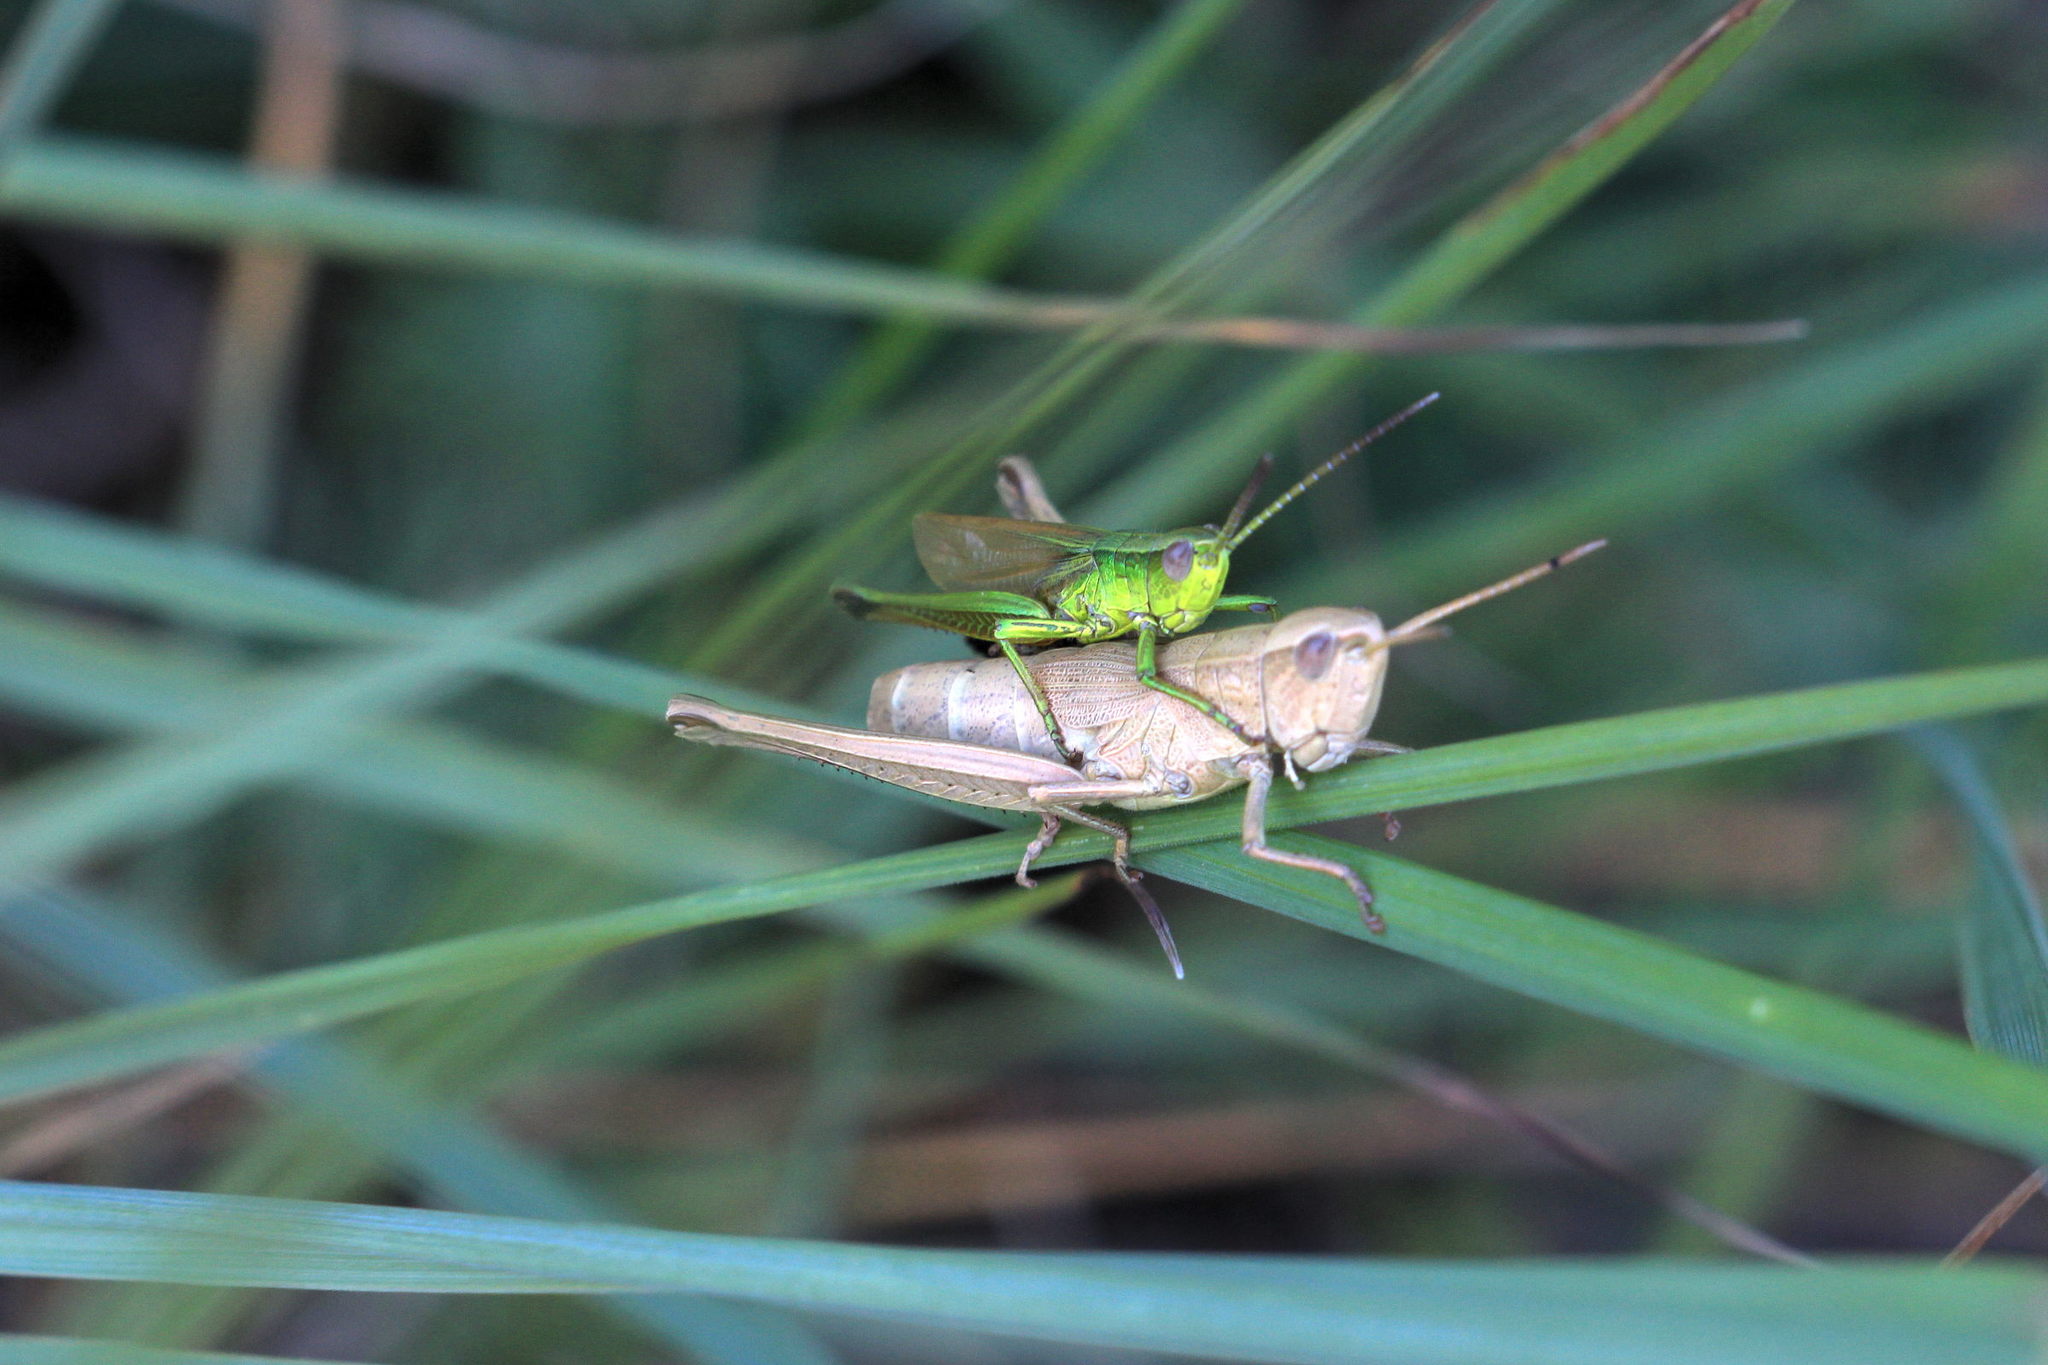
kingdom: Animalia
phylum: Arthropoda
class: Insecta
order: Orthoptera
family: Acrididae
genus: Chrysochraon
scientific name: Chrysochraon dispar
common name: Large gold grasshopper
